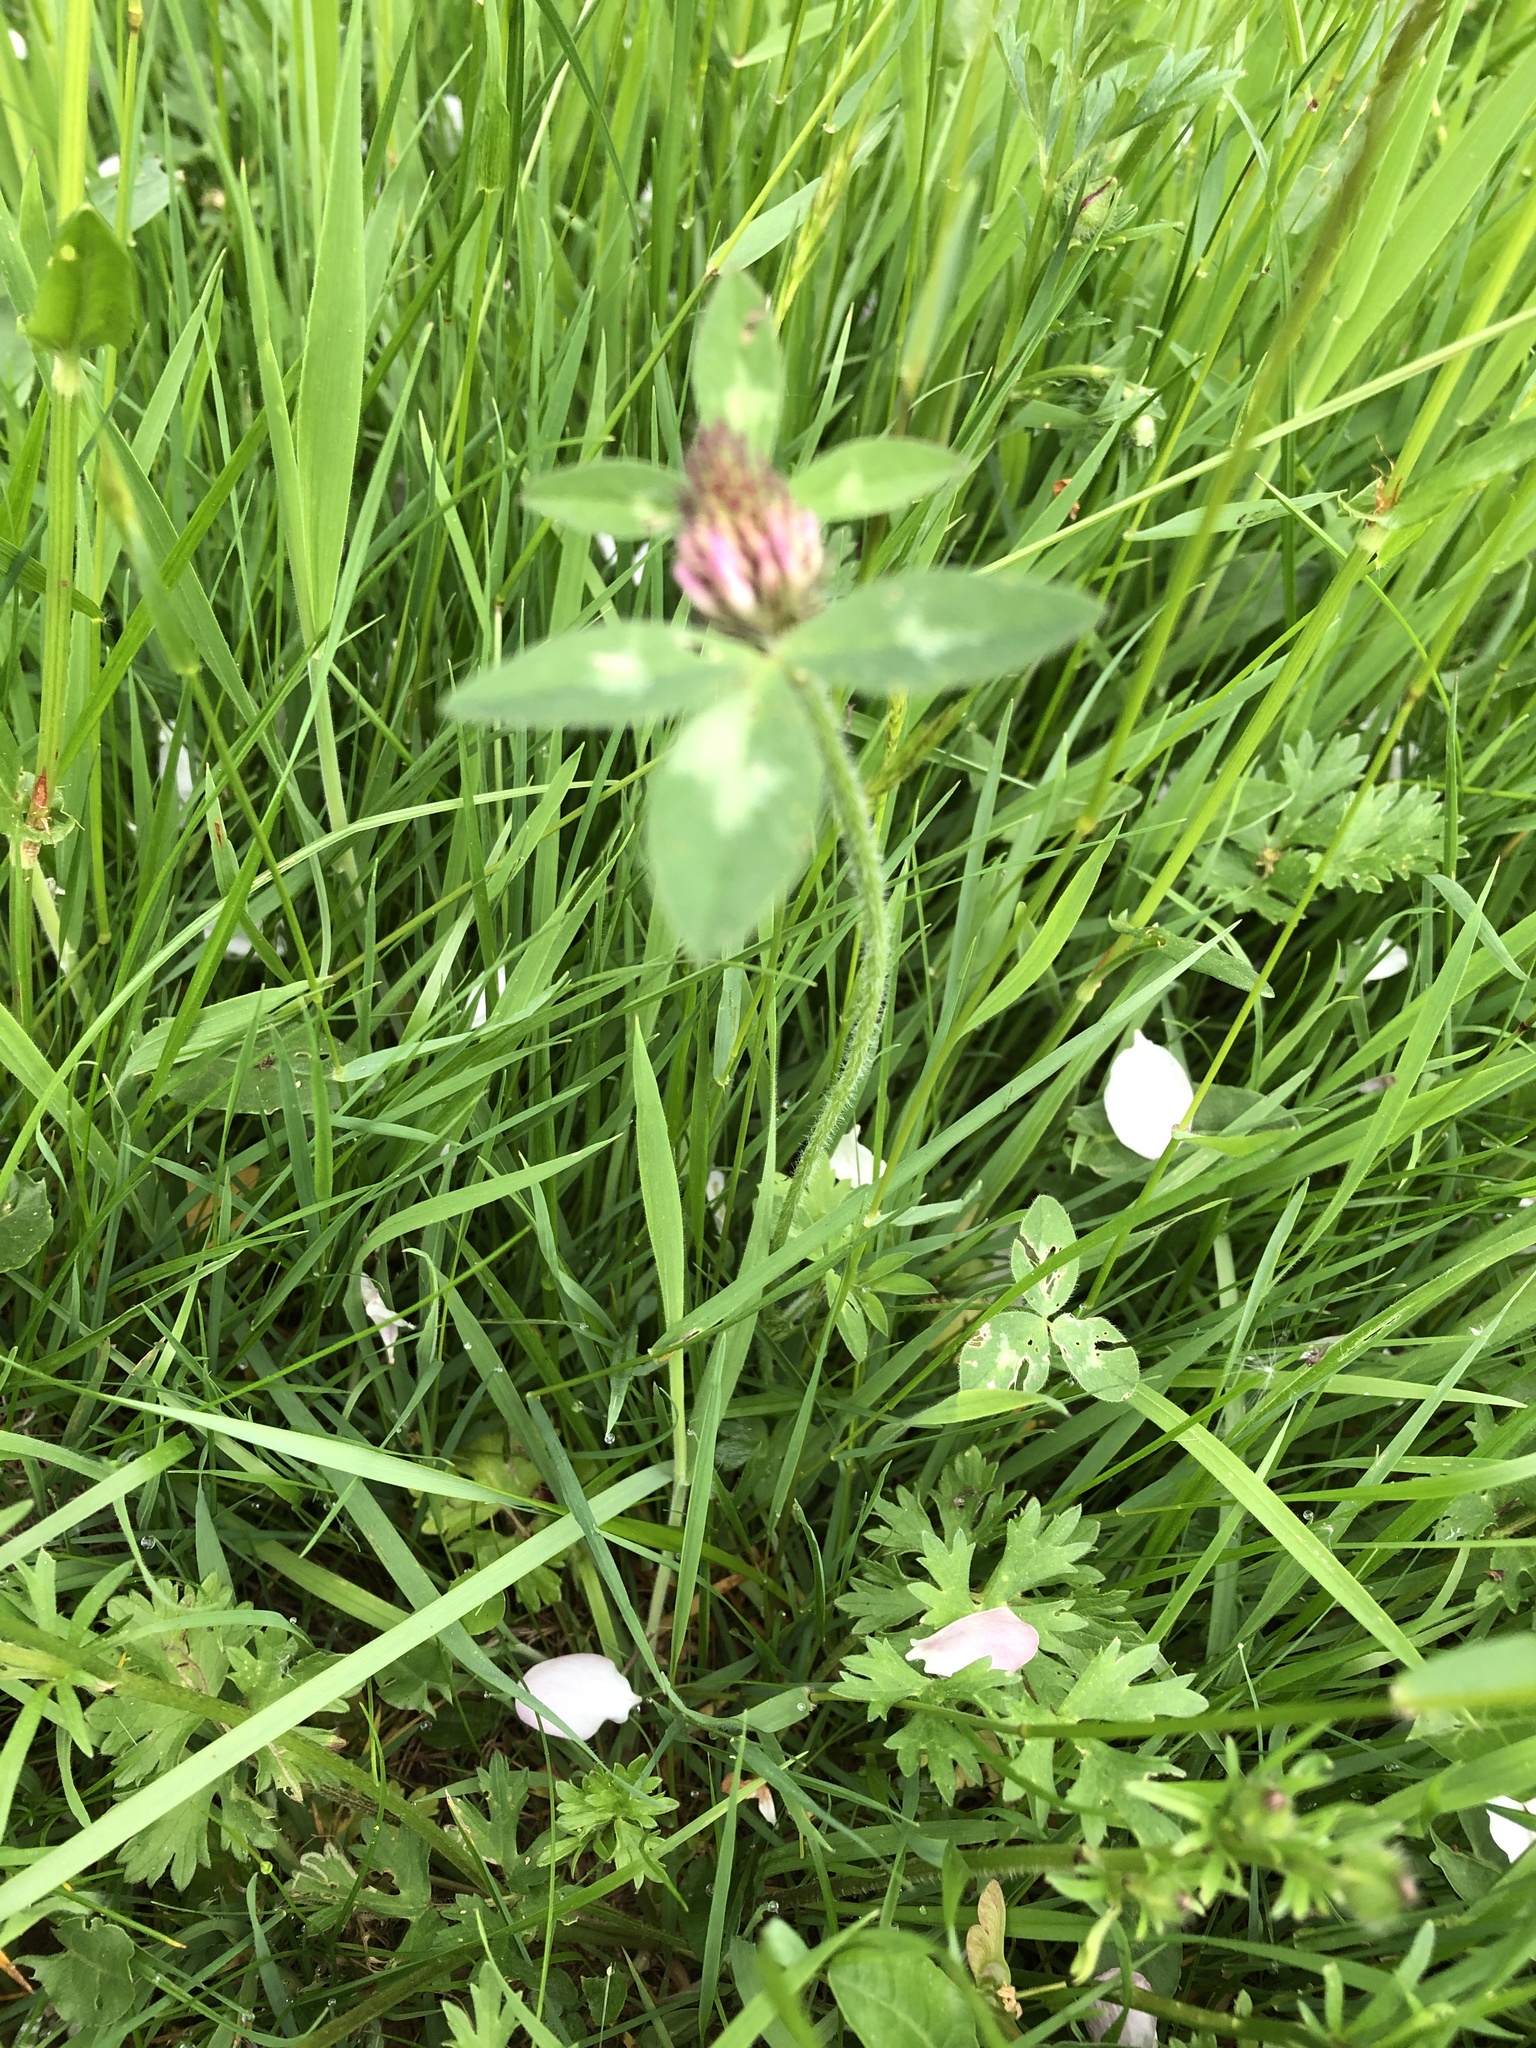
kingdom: Plantae
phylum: Tracheophyta
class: Magnoliopsida
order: Fabales
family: Fabaceae
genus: Trifolium
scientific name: Trifolium pratense
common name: Red clover
